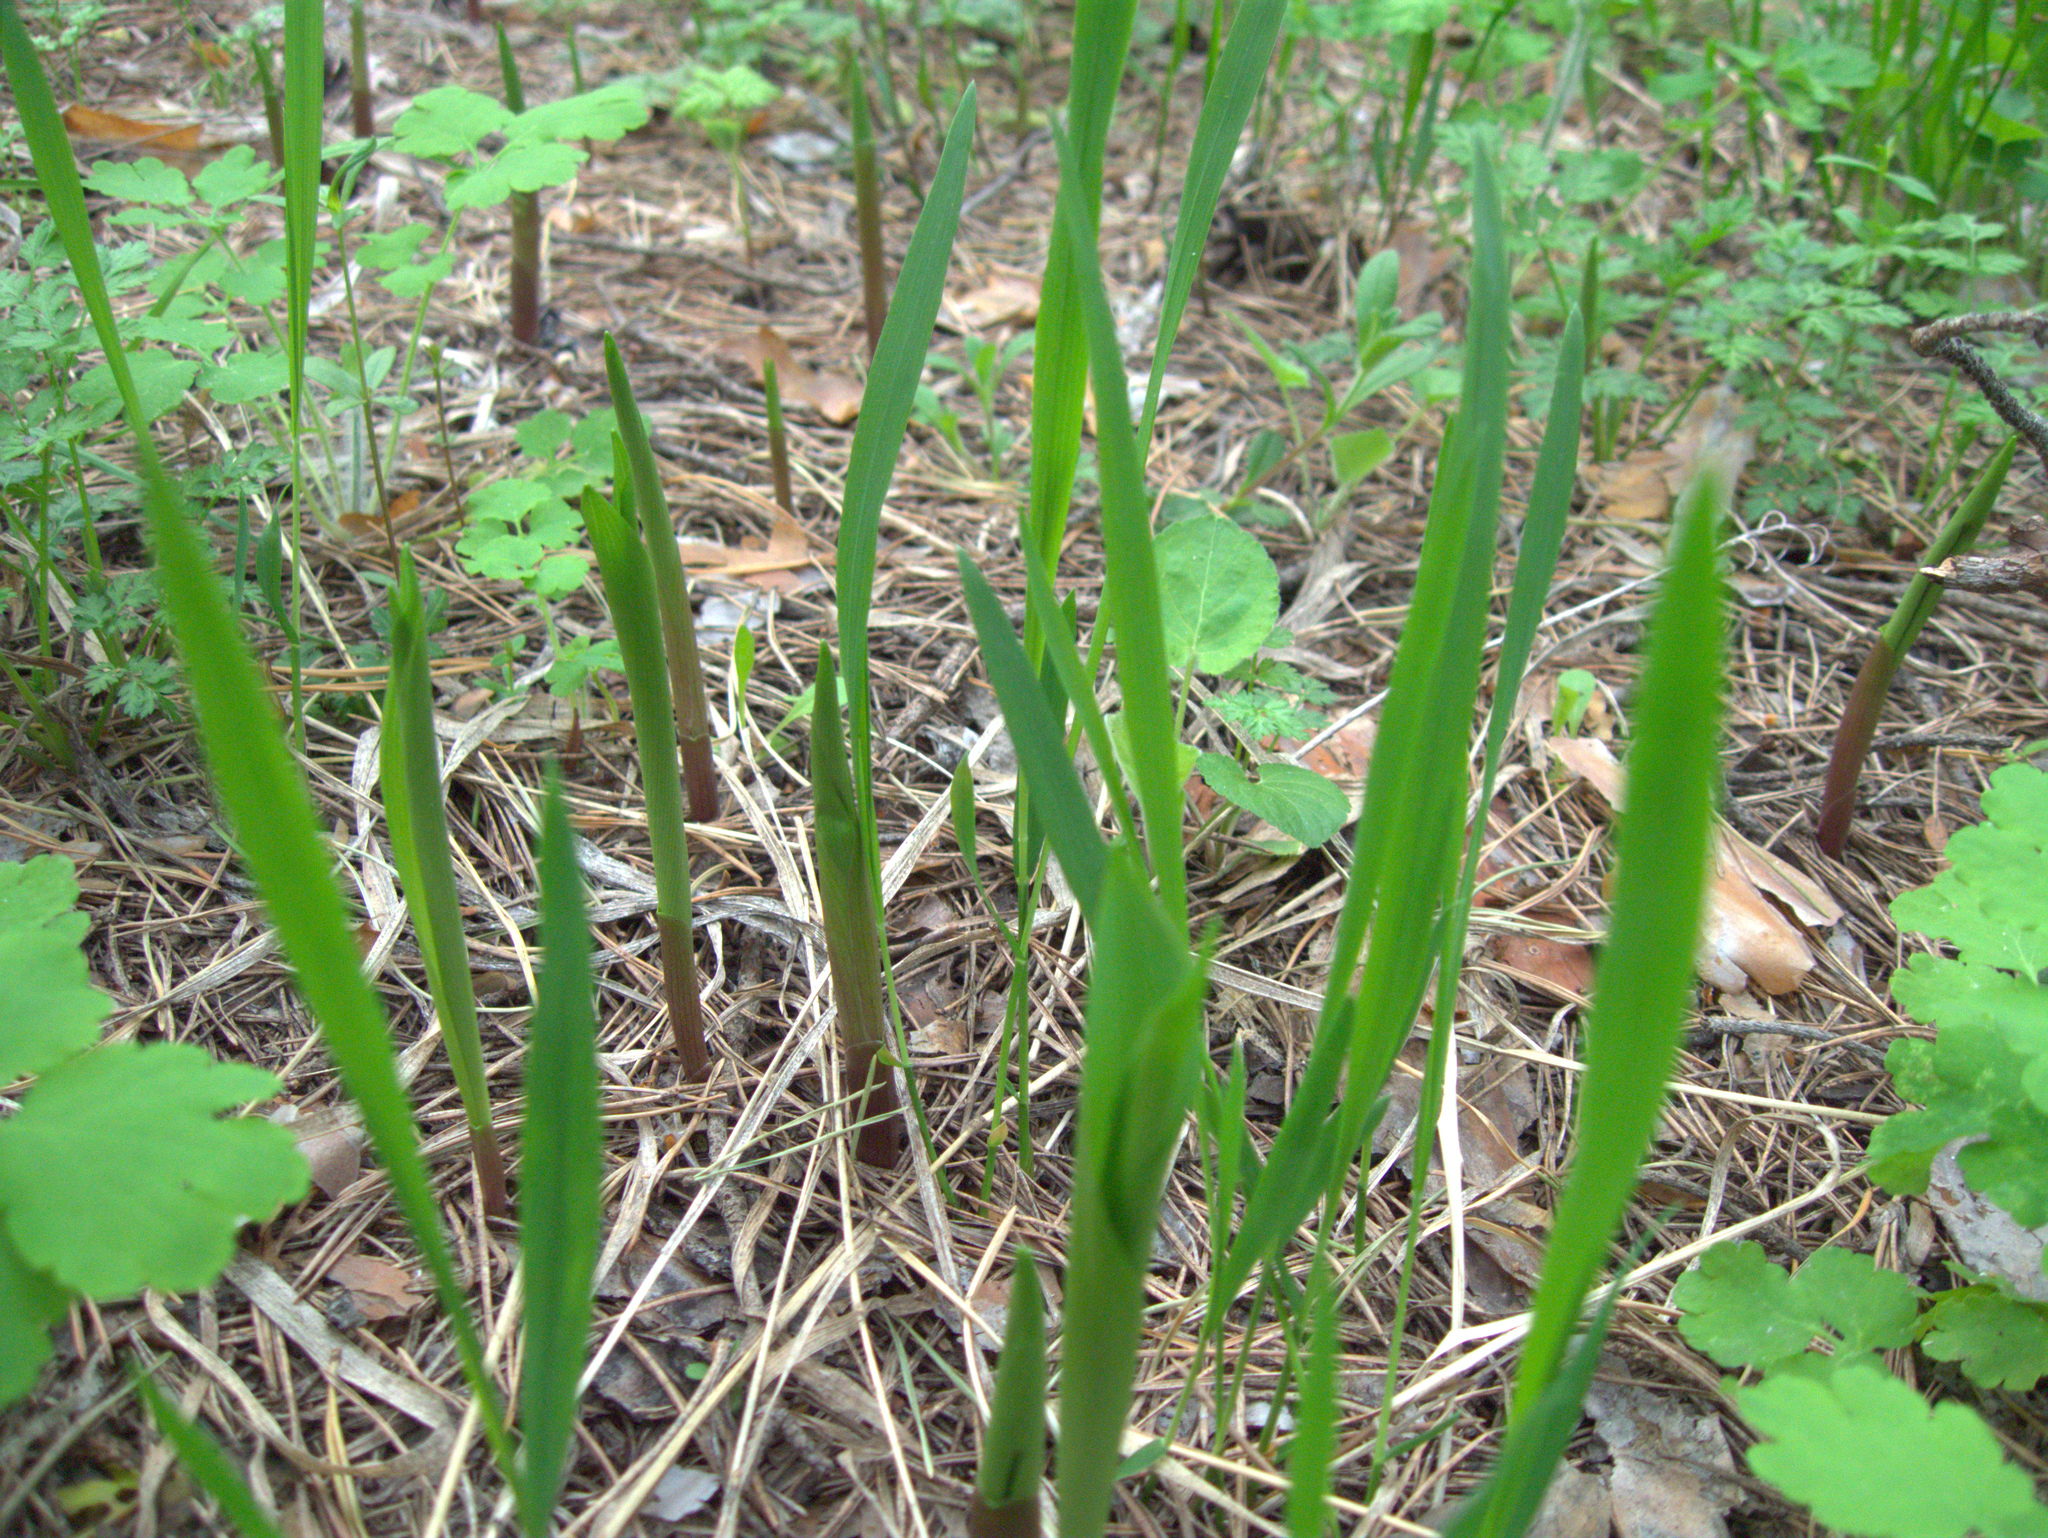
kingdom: Plantae
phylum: Tracheophyta
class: Liliopsida
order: Asparagales
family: Asparagaceae
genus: Convallaria
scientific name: Convallaria majalis
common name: Lily-of-the-valley
